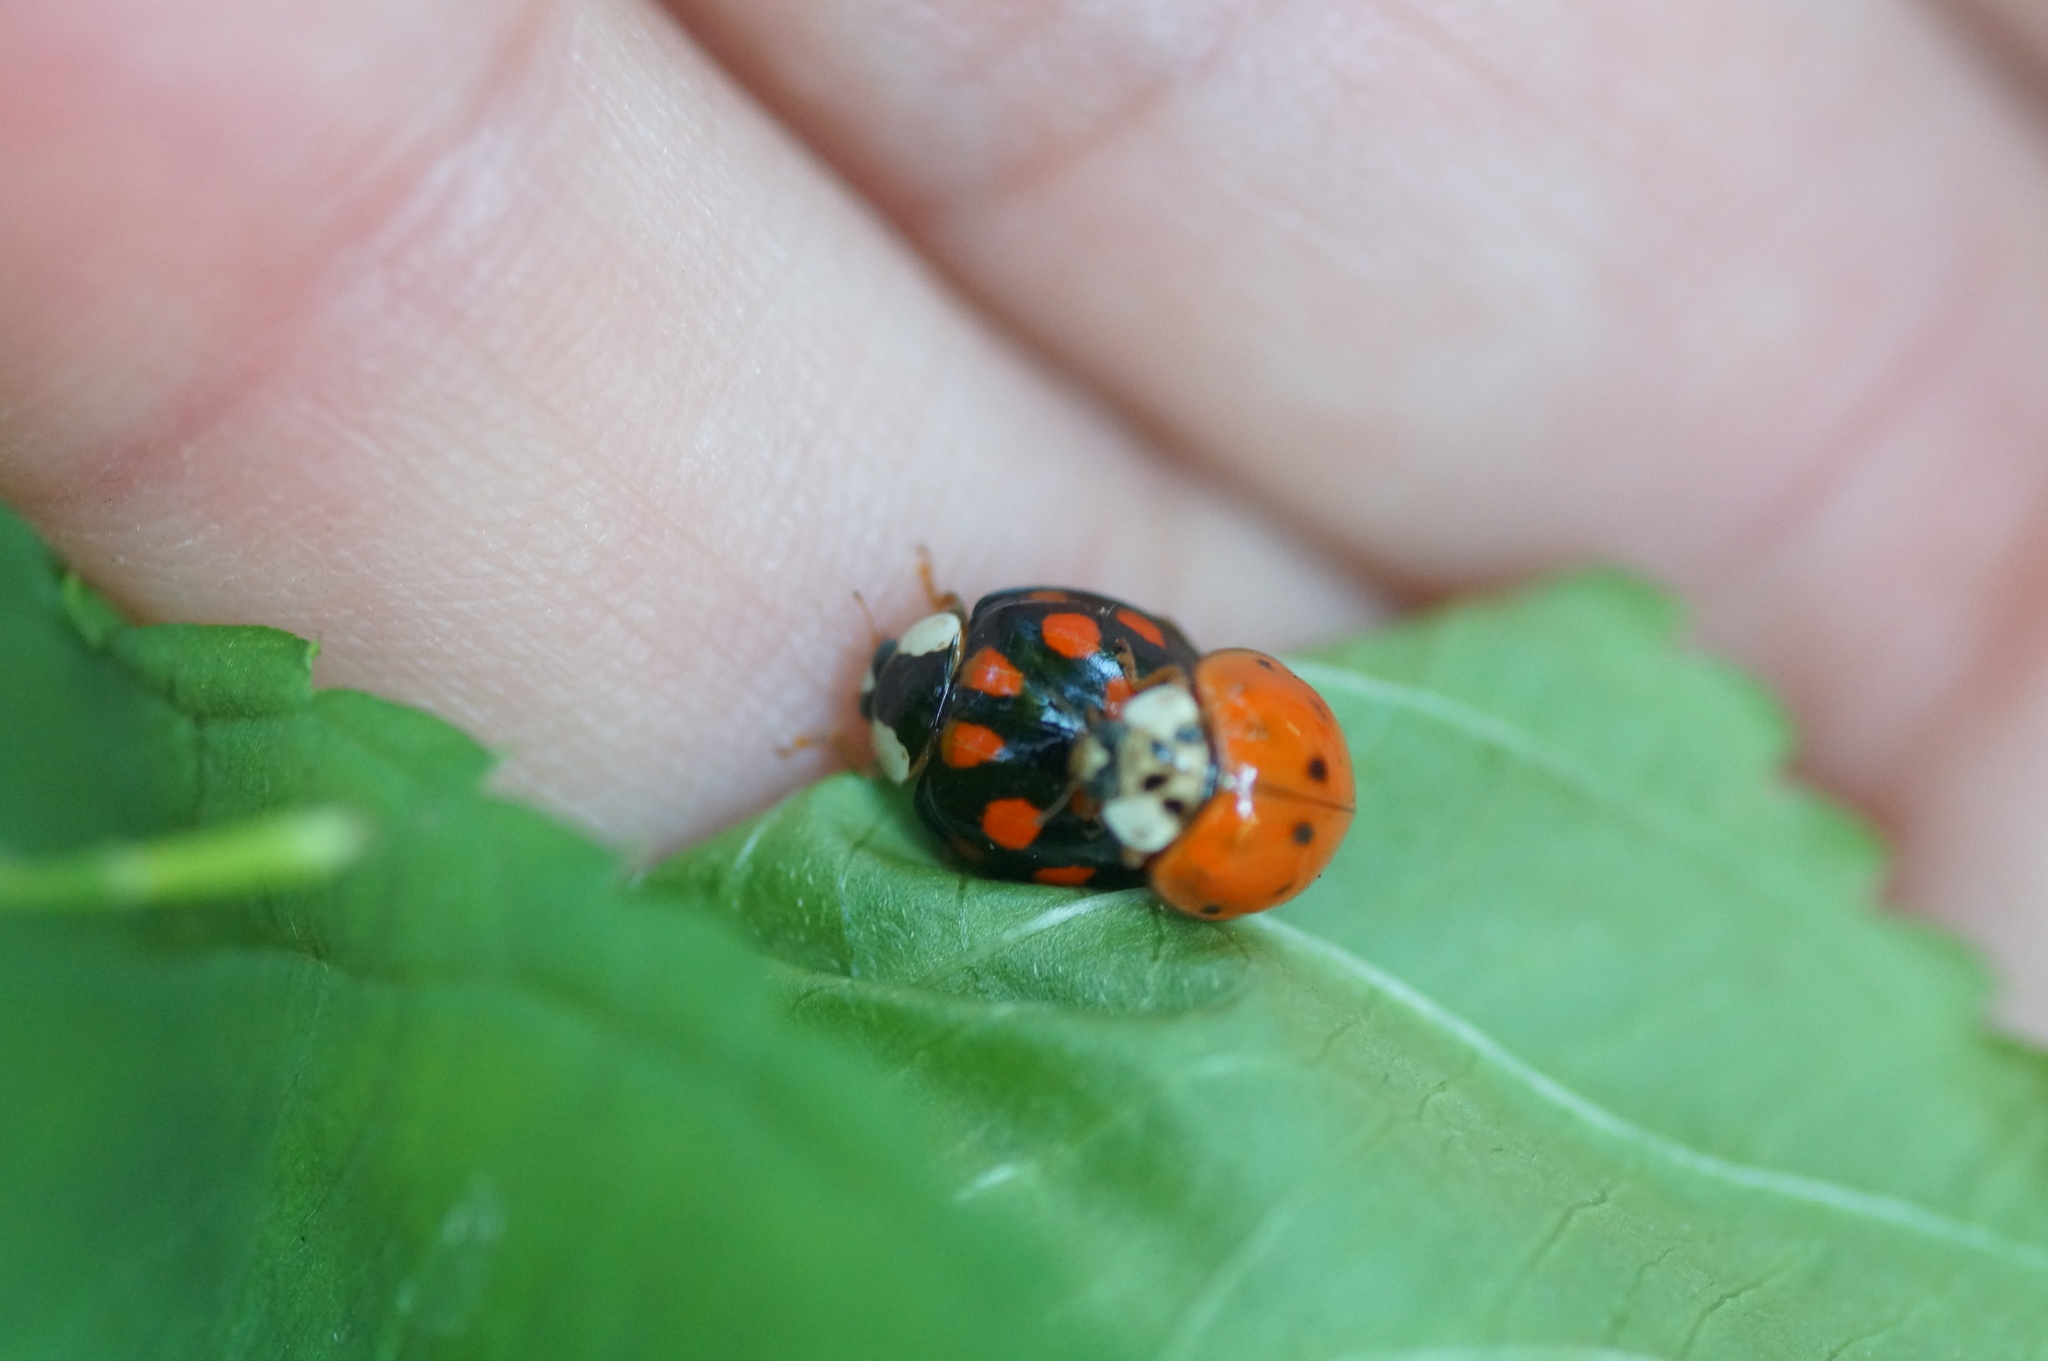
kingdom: Animalia
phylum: Arthropoda
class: Insecta
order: Coleoptera
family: Coccinellidae
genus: Harmonia
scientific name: Harmonia axyridis
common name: Harlequin ladybird
